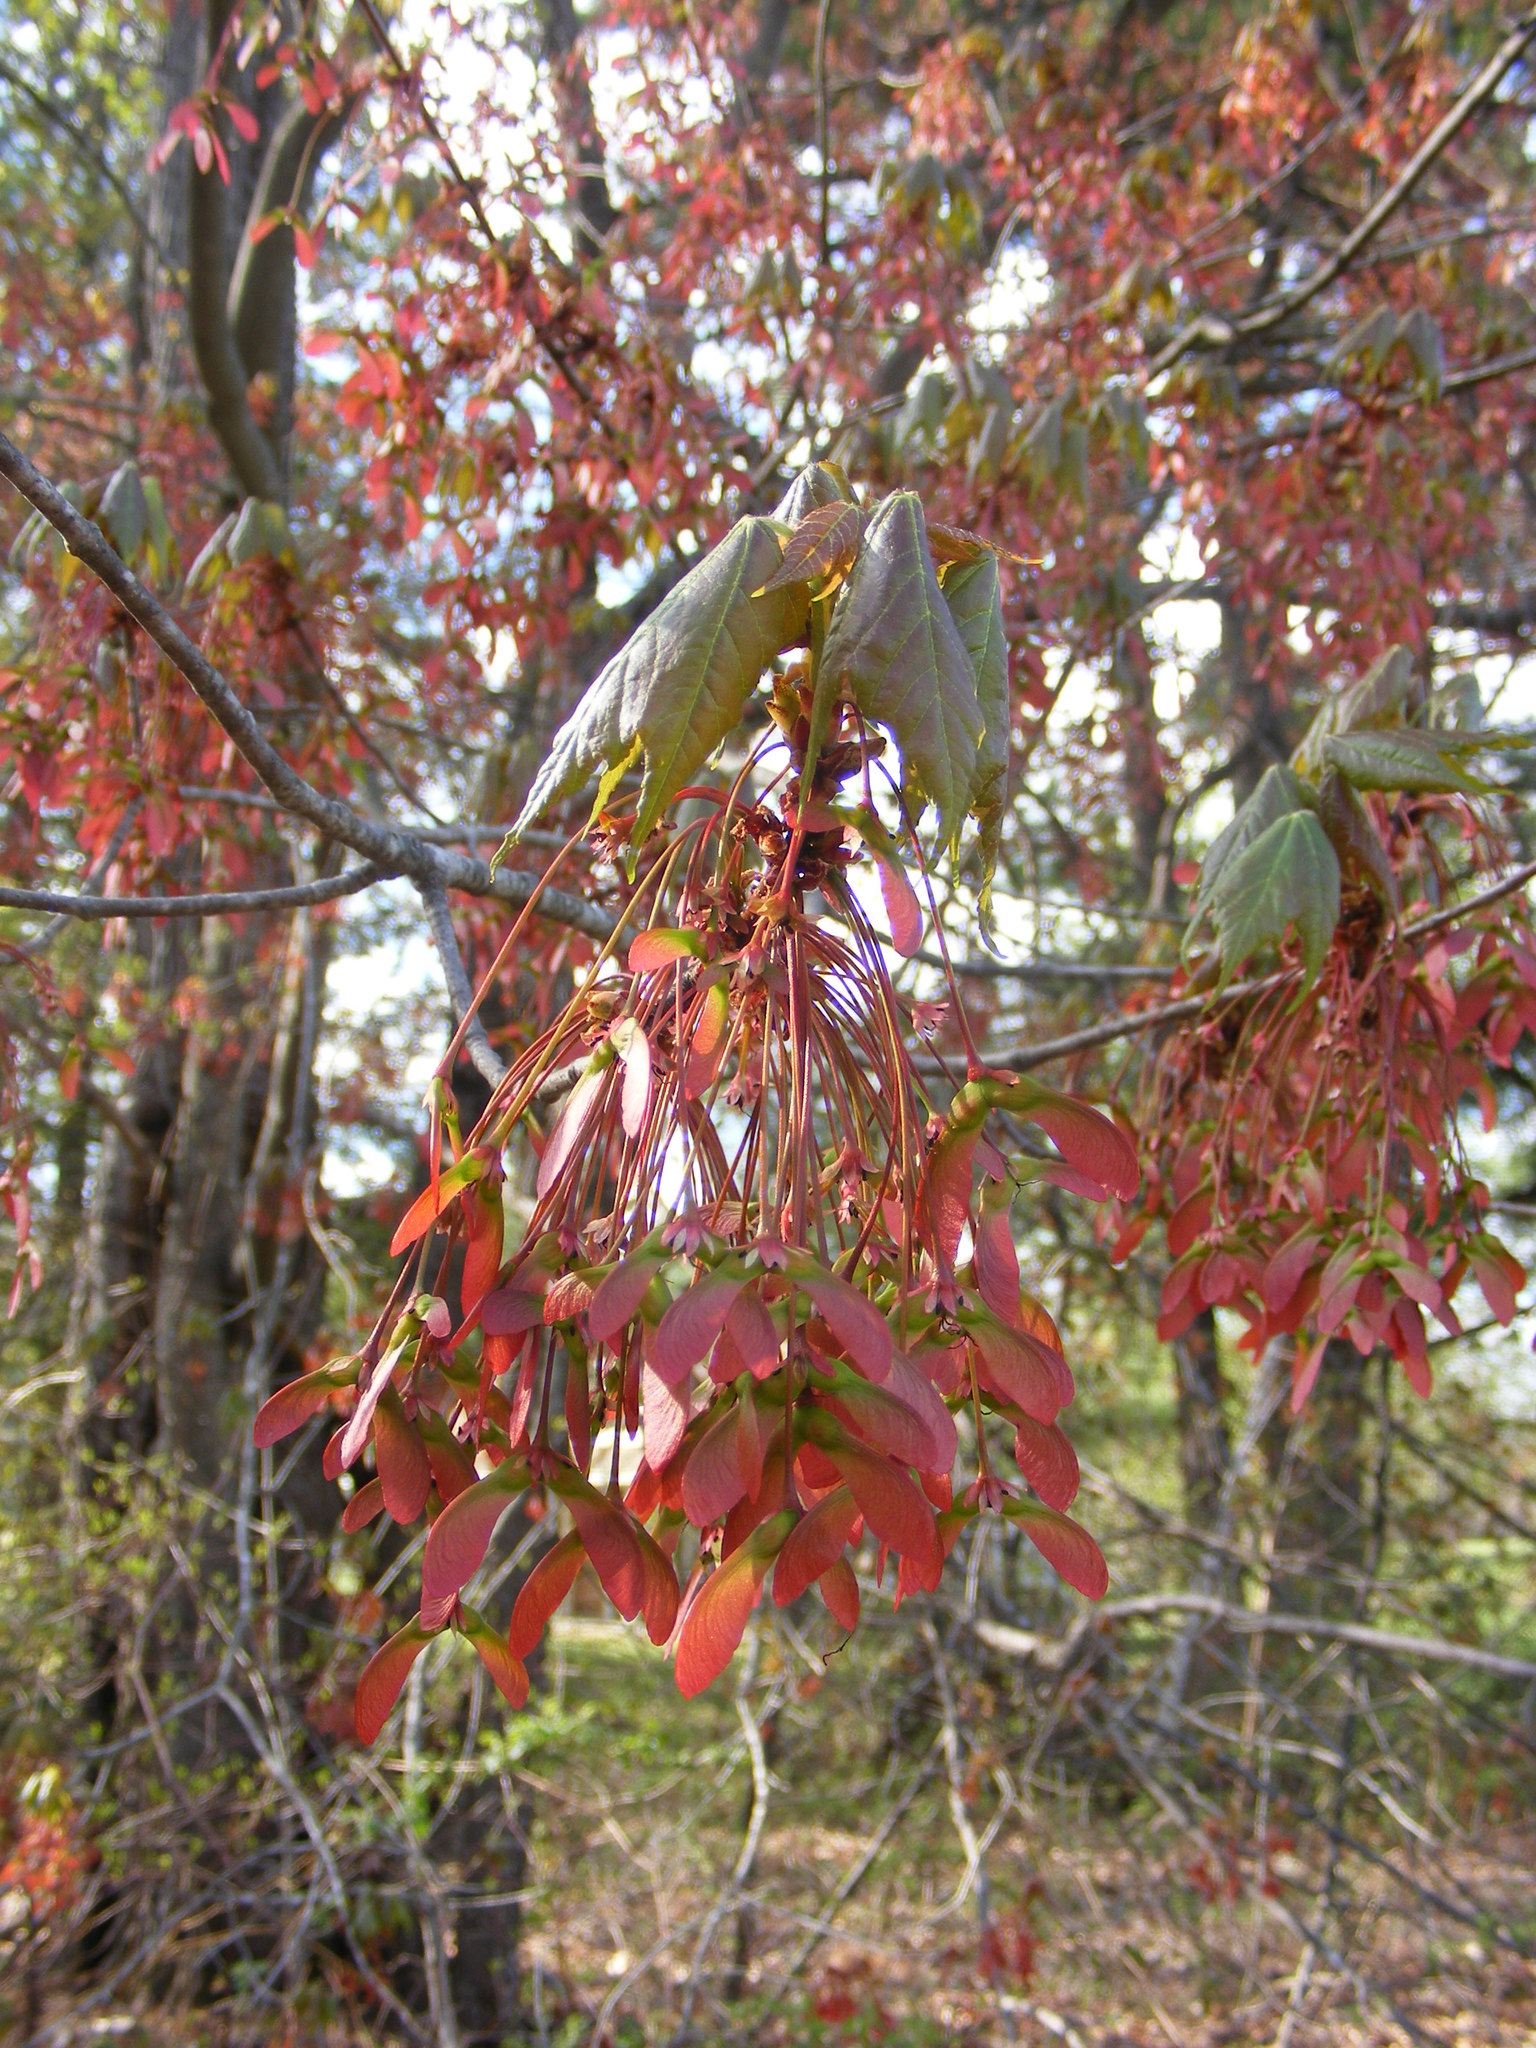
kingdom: Plantae
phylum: Tracheophyta
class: Magnoliopsida
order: Sapindales
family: Sapindaceae
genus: Acer
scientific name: Acer rubrum
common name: Red maple
